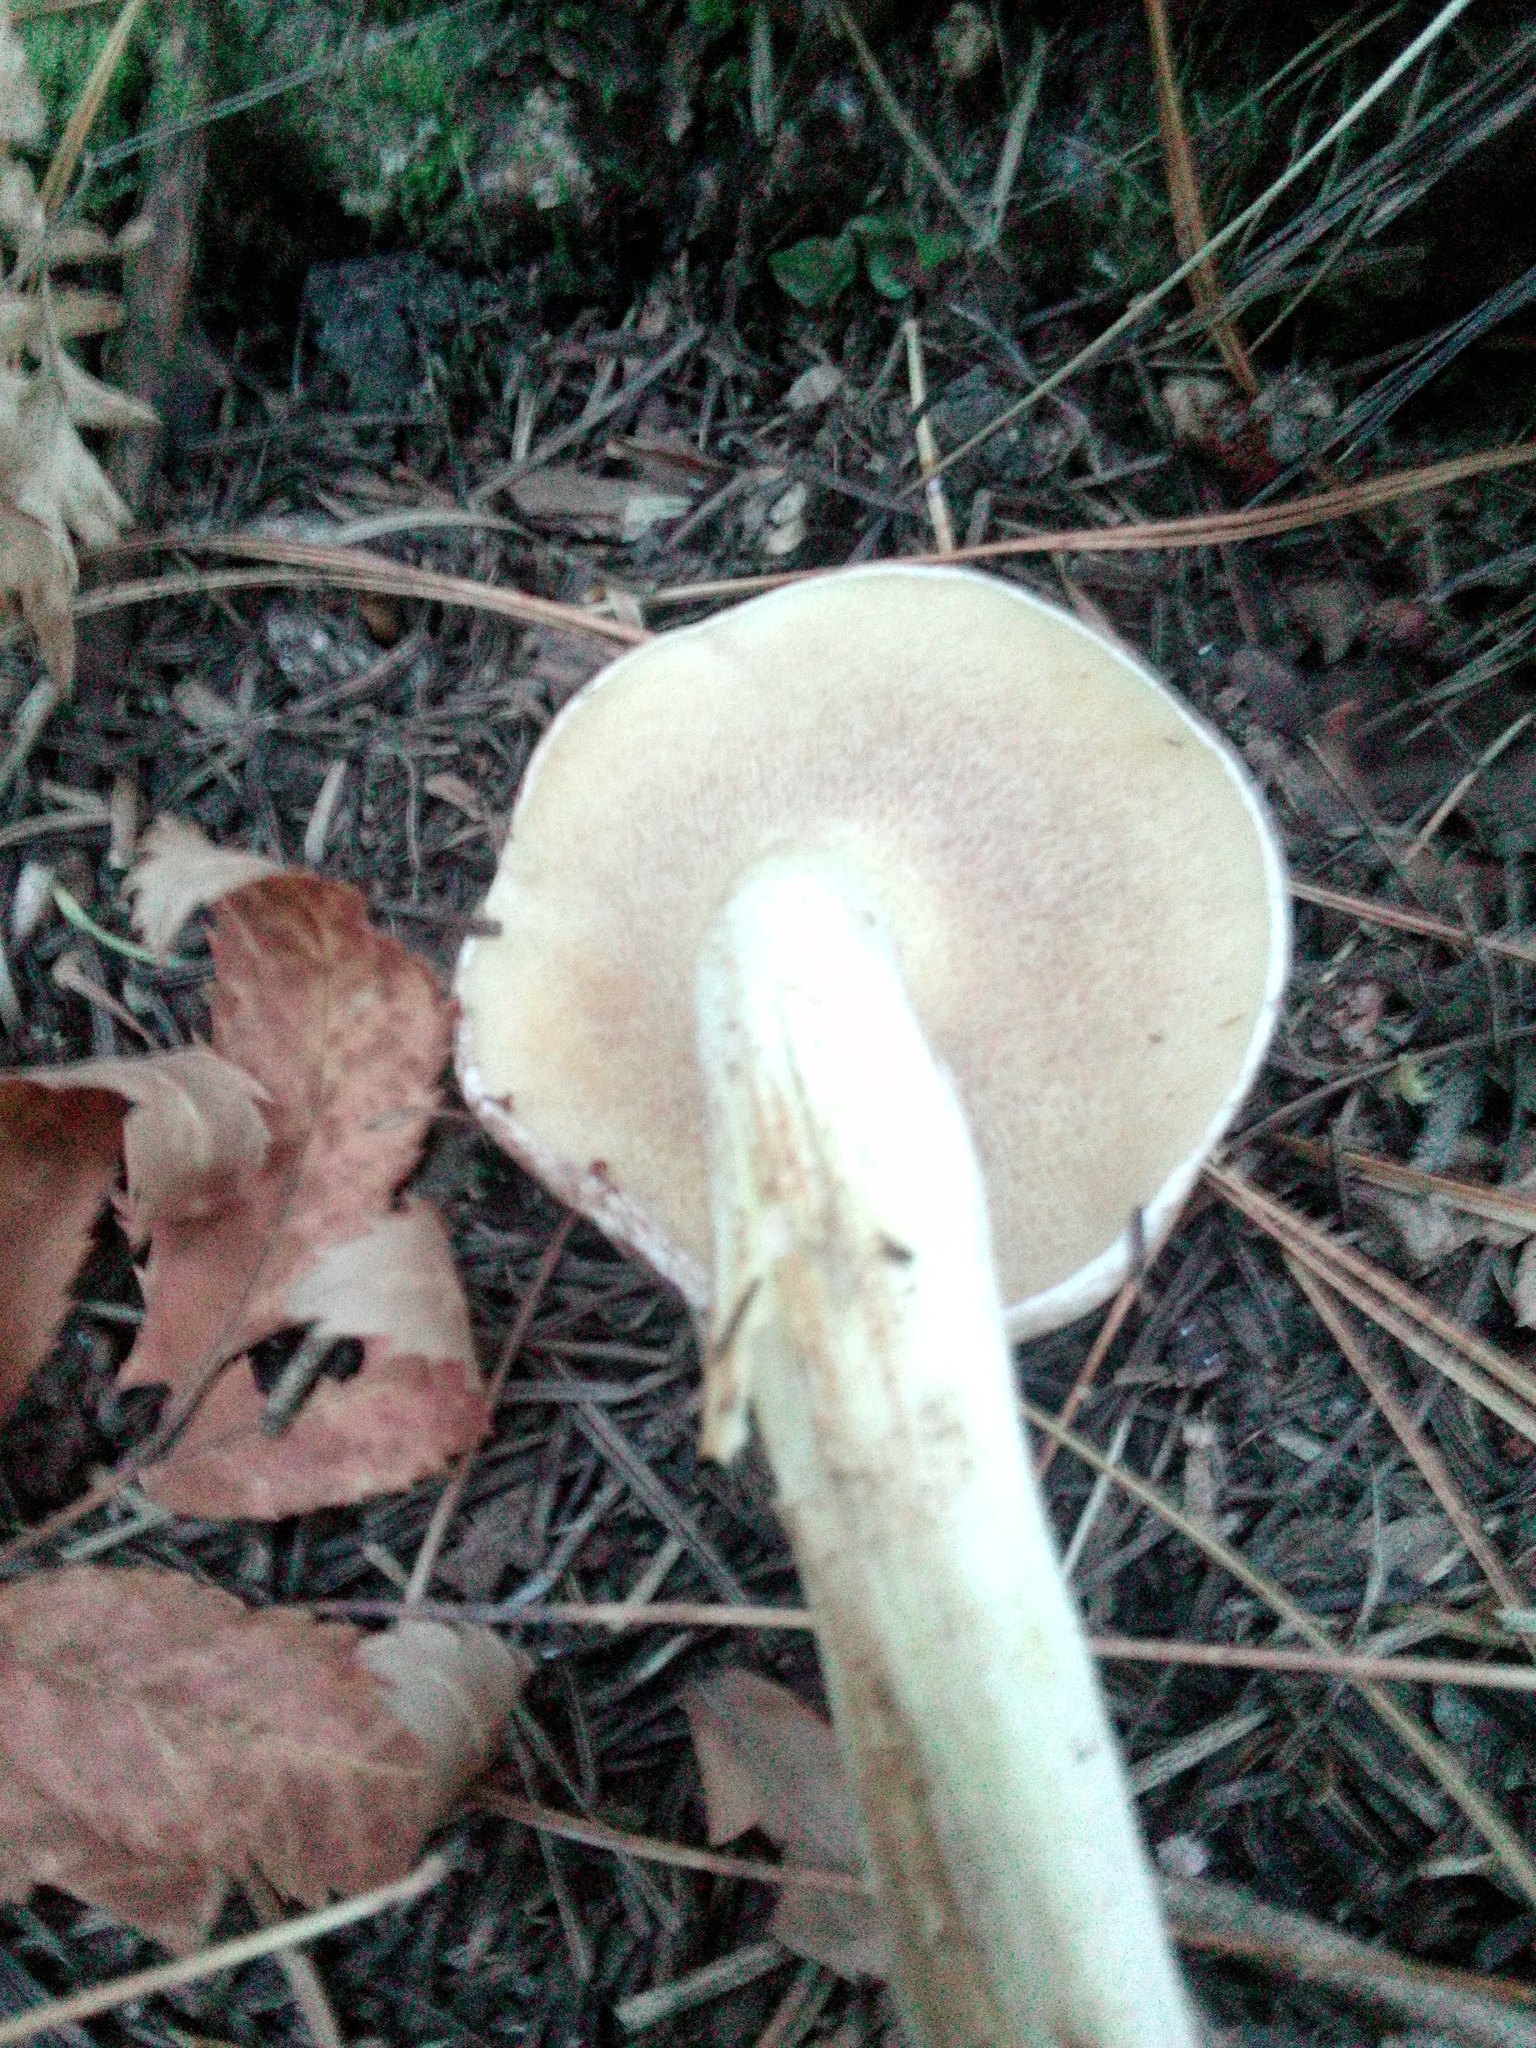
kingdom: Fungi
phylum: Basidiomycota
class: Agaricomycetes
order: Boletales
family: Suillaceae
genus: Suillus
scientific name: Suillus placidus
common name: Slippery white bolete
